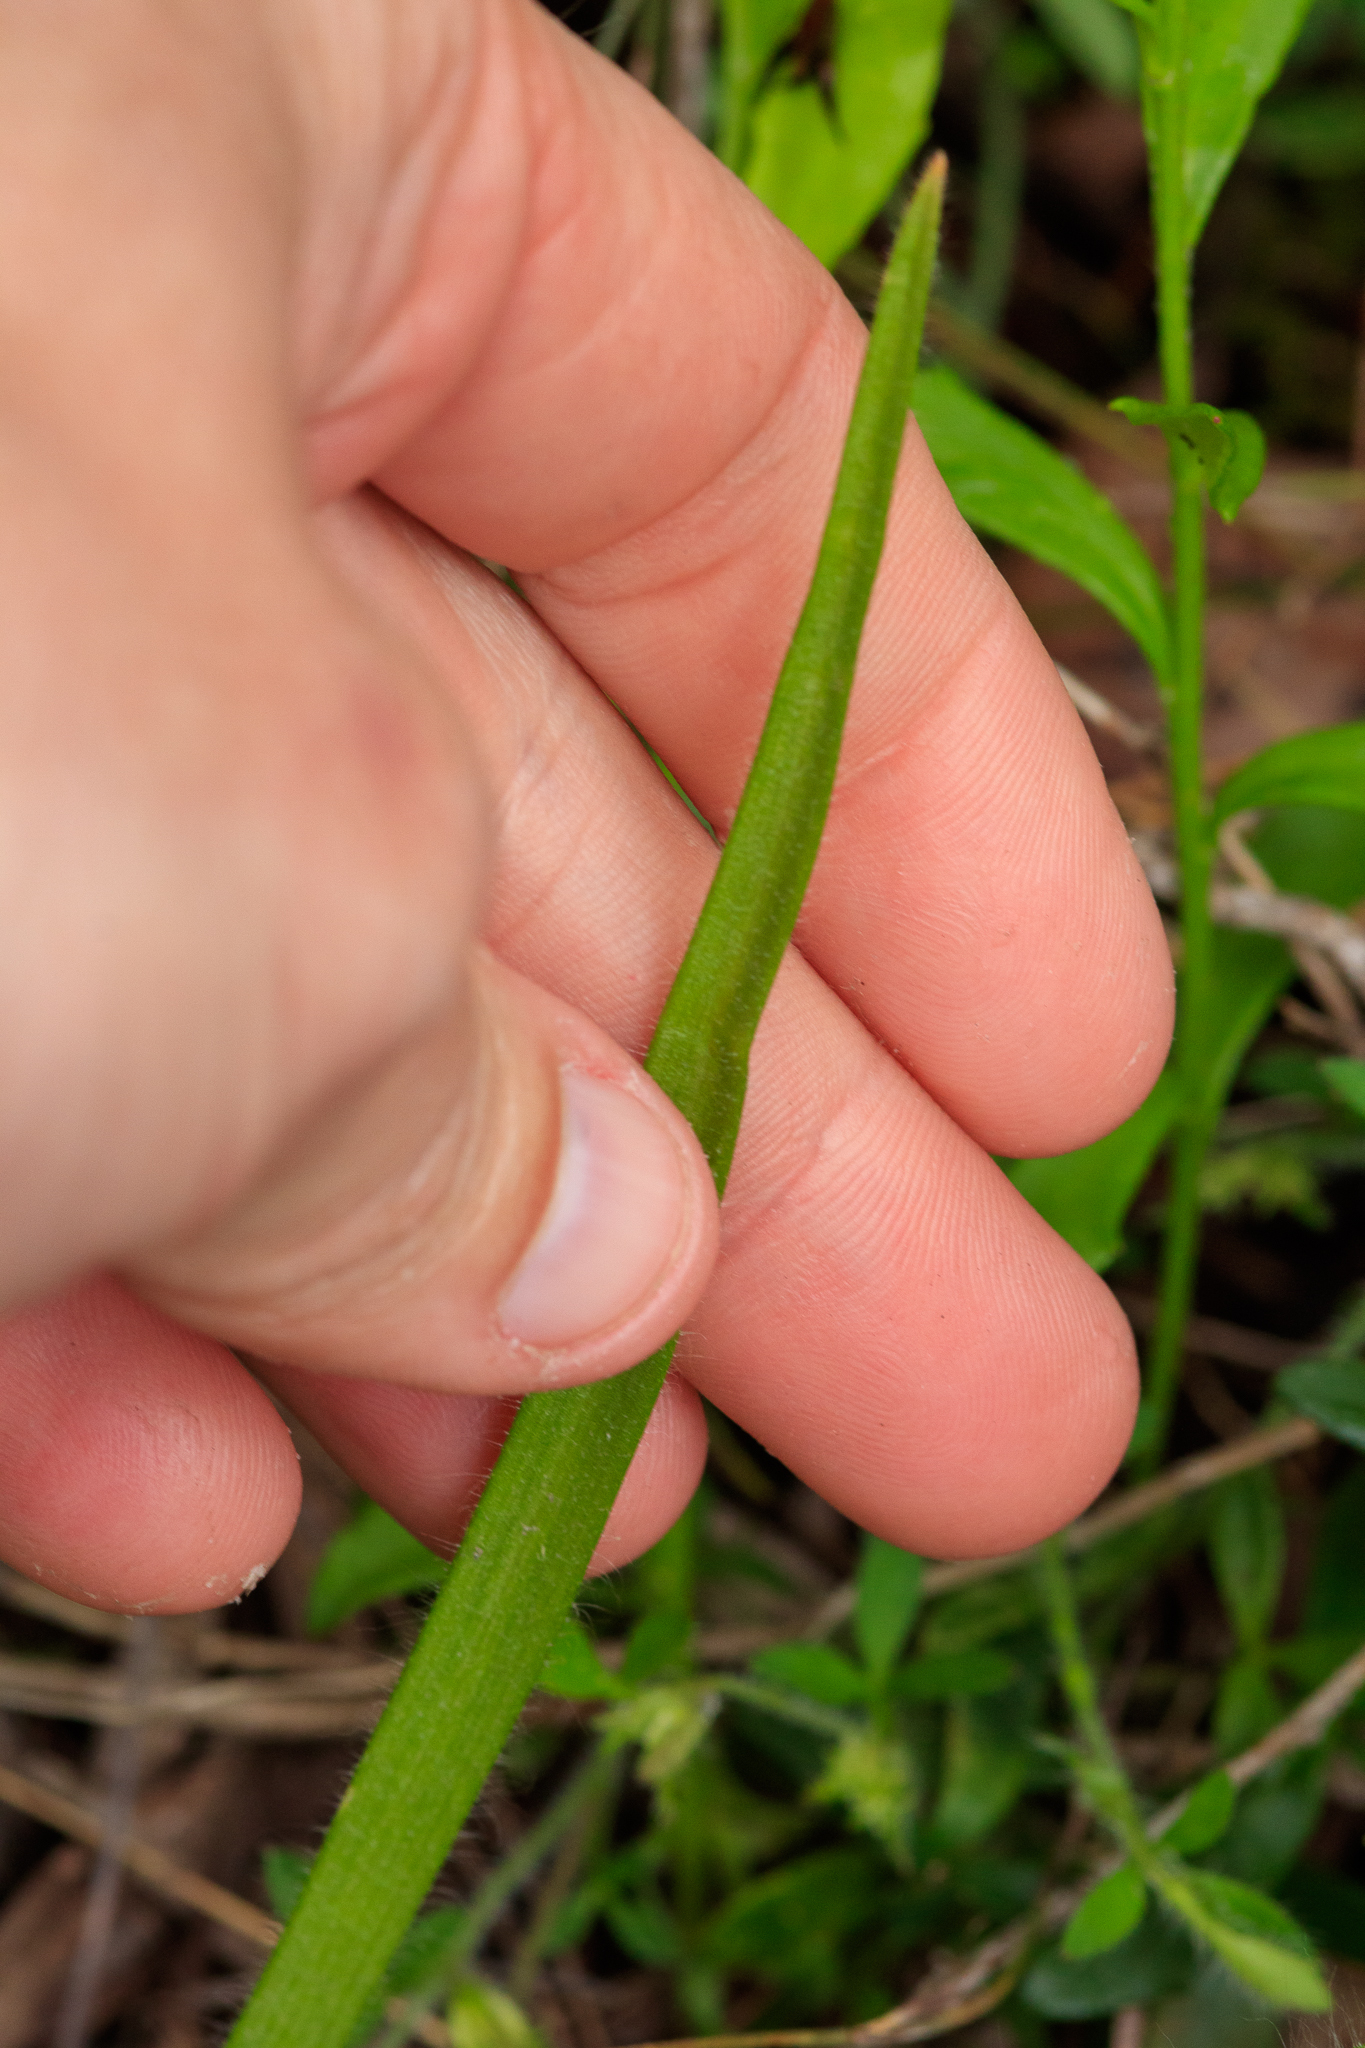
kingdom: Plantae
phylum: Tracheophyta
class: Liliopsida
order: Asparagales
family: Orchidaceae
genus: Caladenia
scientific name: Caladenia paludosa
